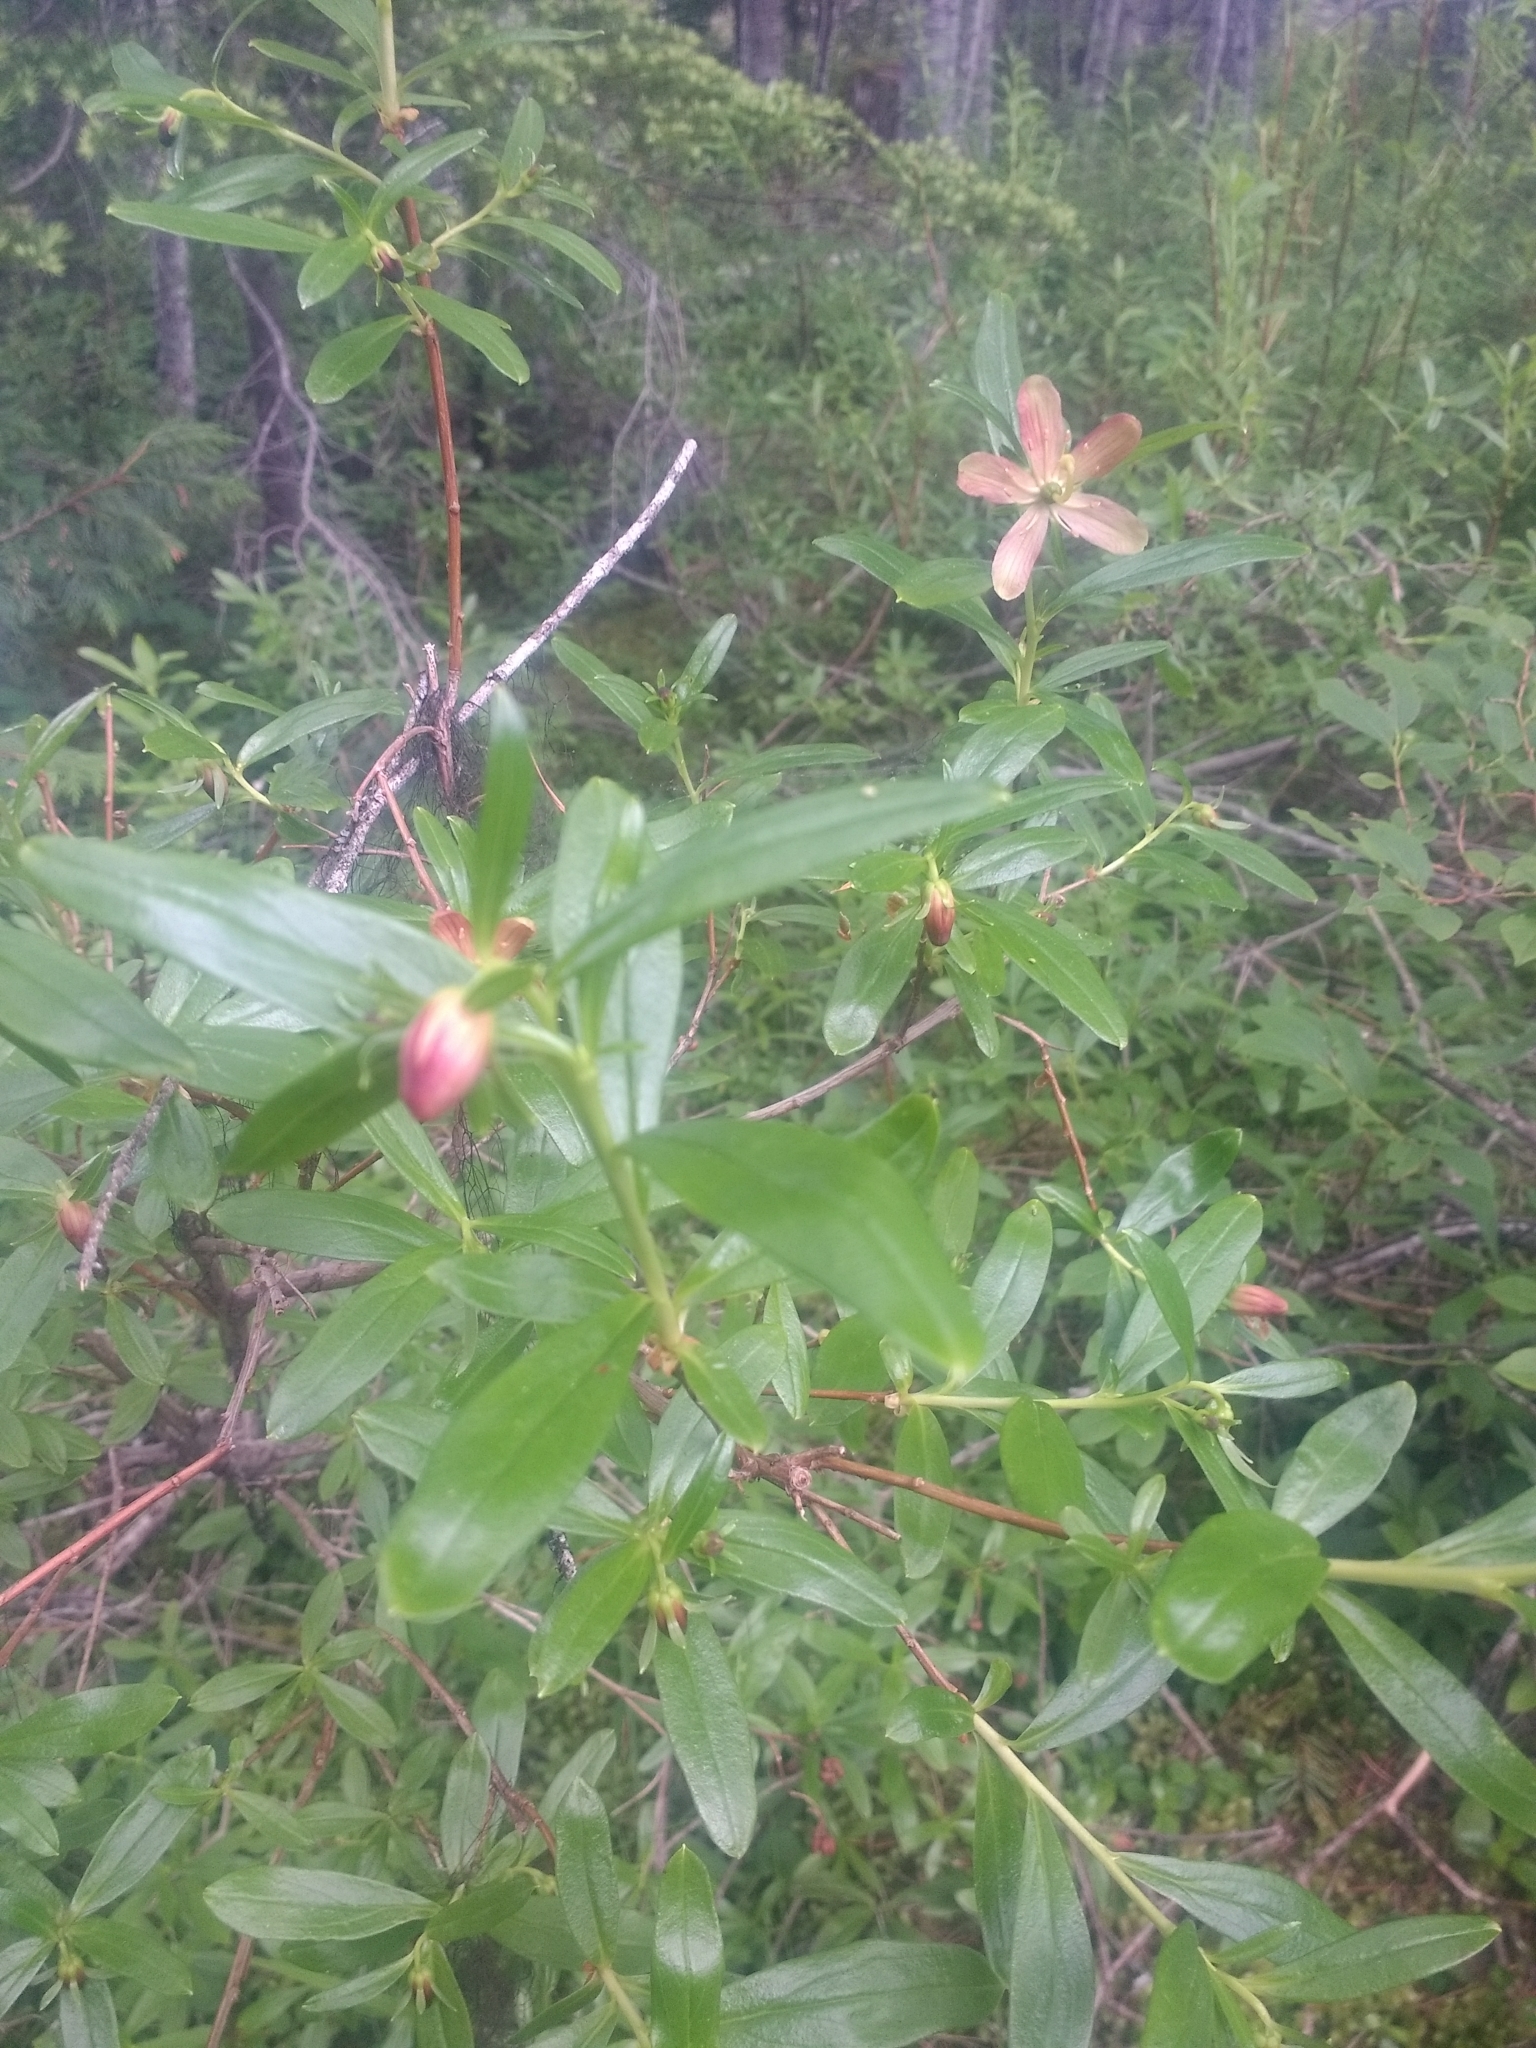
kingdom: Plantae
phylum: Tracheophyta
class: Magnoliopsida
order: Ericales
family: Ericaceae
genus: Elliottia
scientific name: Elliottia pyroliflora
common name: Copperbush
